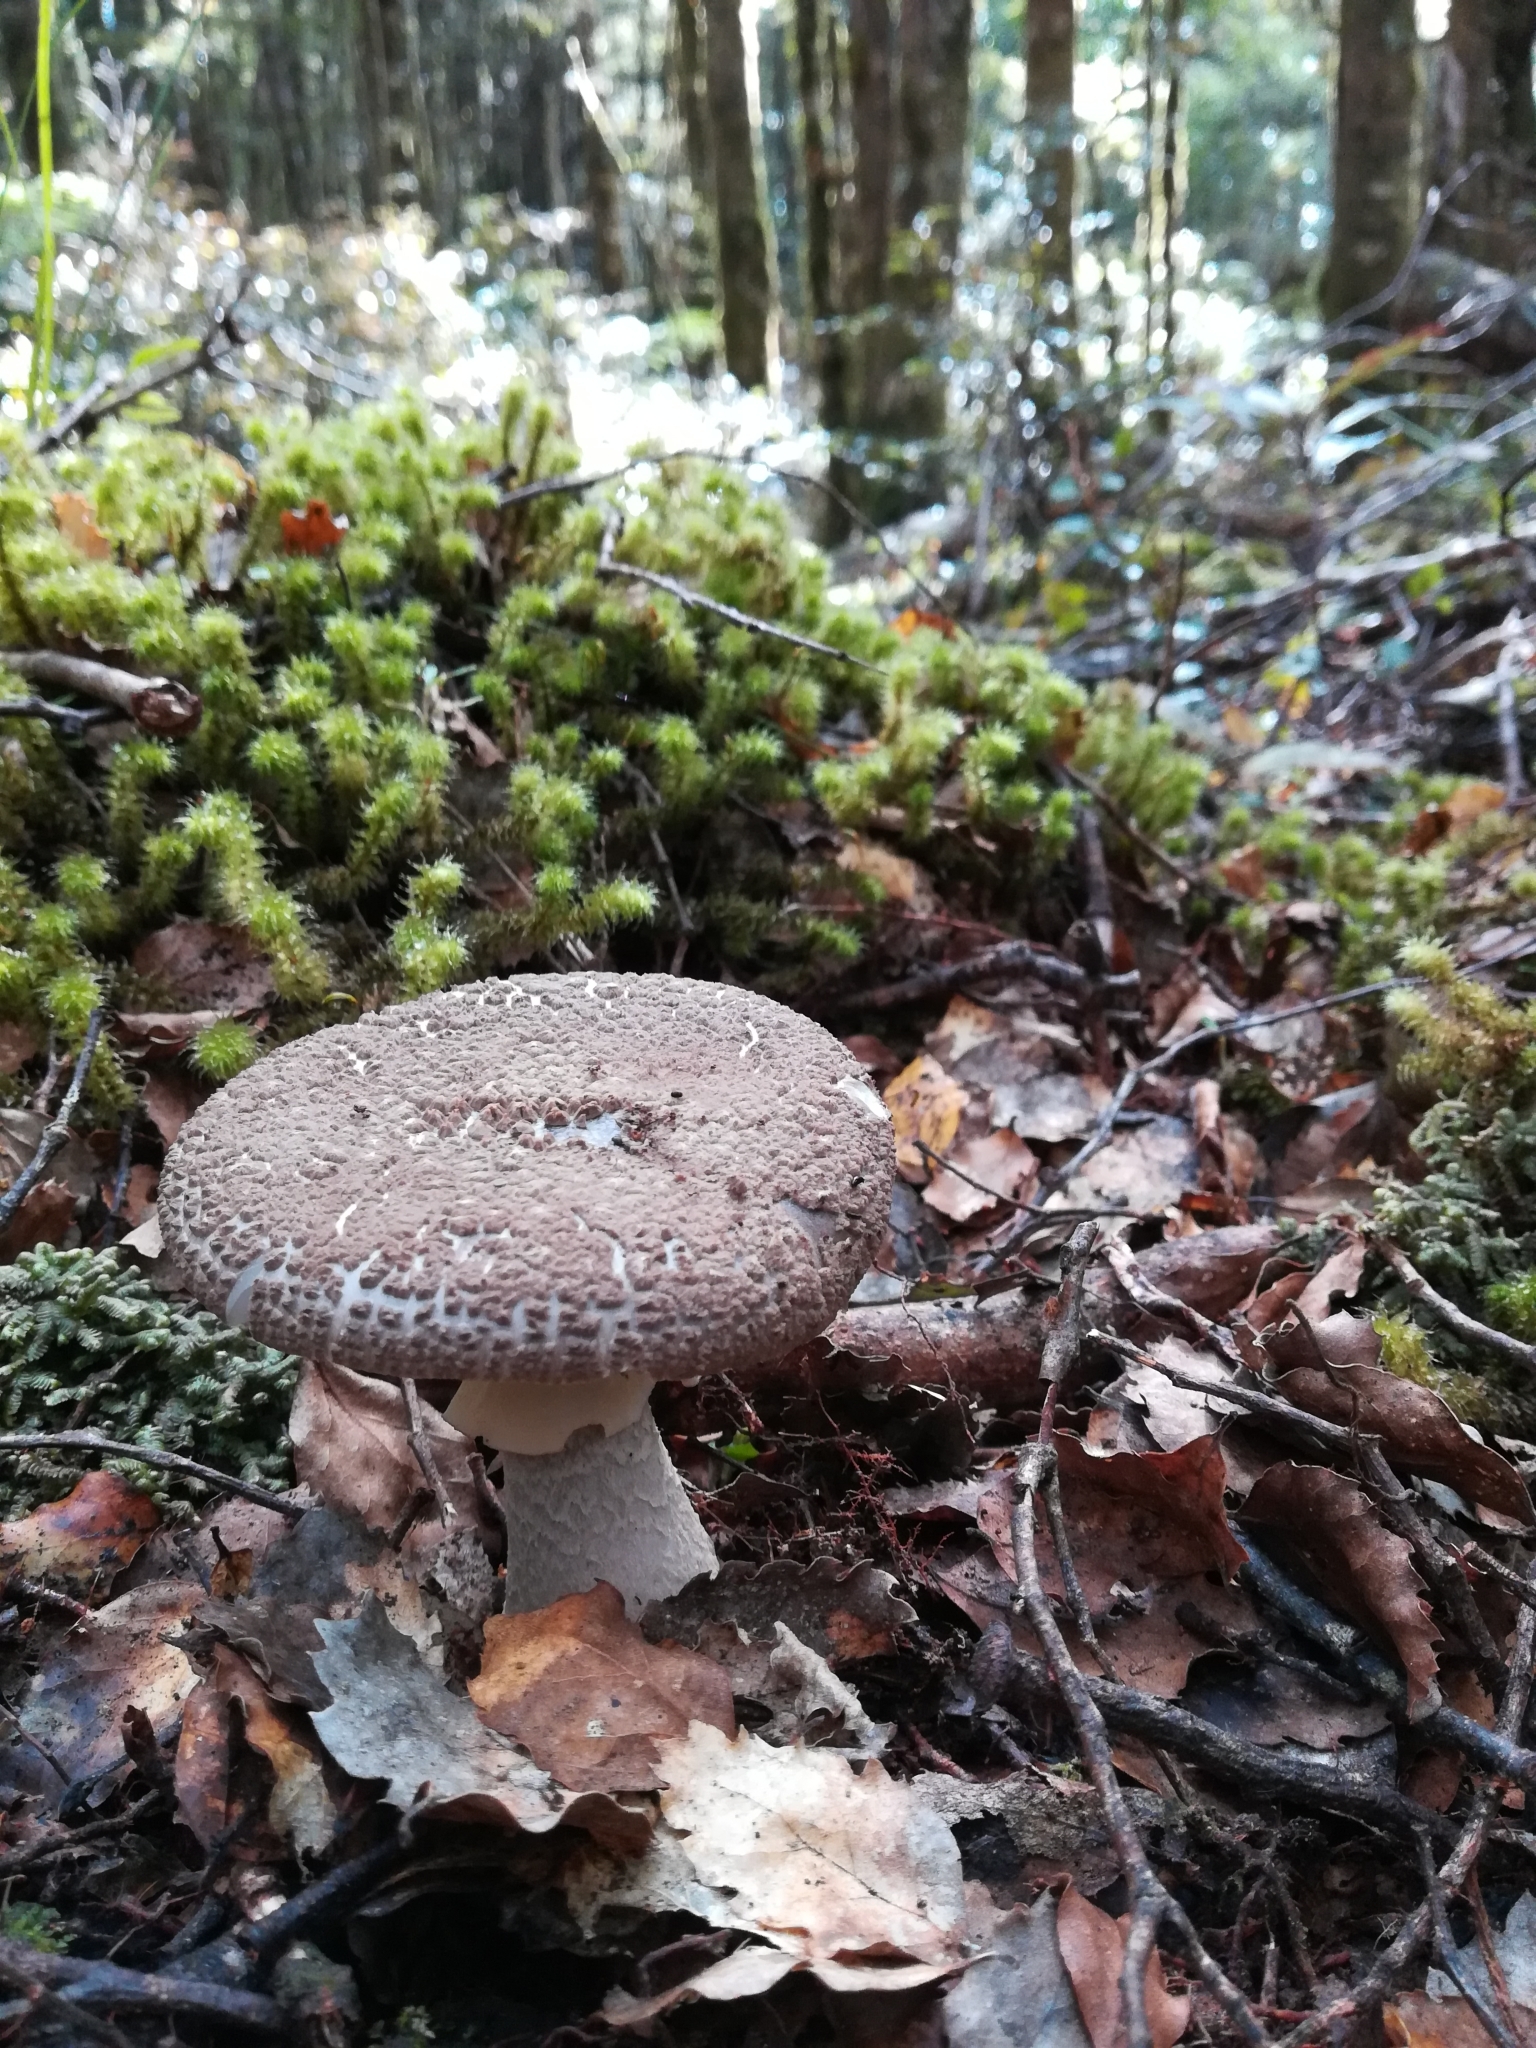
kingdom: Fungi
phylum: Basidiomycota
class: Agaricomycetes
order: Agaricales
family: Amanitaceae
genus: Amanita
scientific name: Amanita karea
